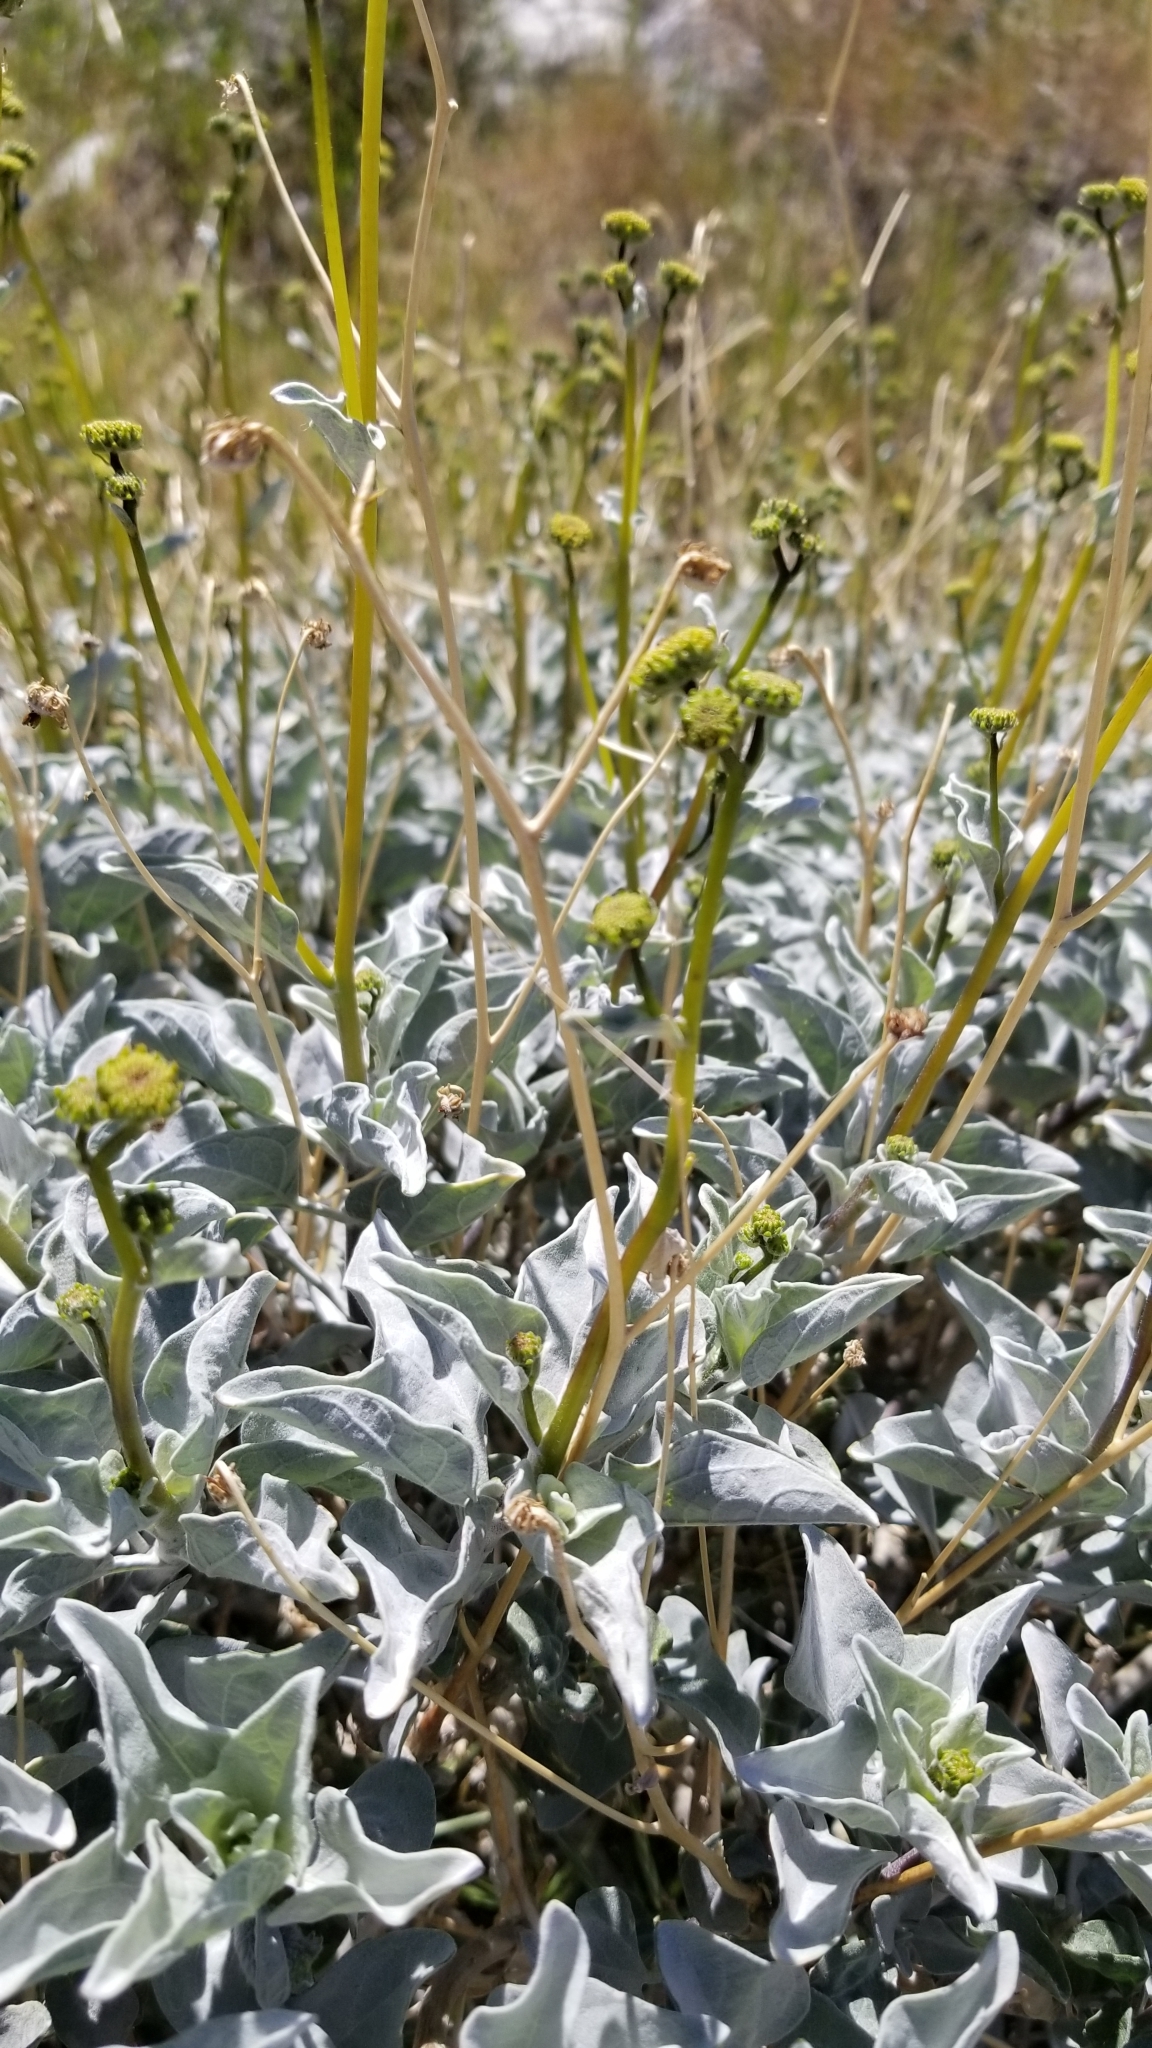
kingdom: Plantae
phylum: Tracheophyta
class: Magnoliopsida
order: Asterales
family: Asteraceae
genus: Encelia
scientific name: Encelia farinosa
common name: Brittlebush
